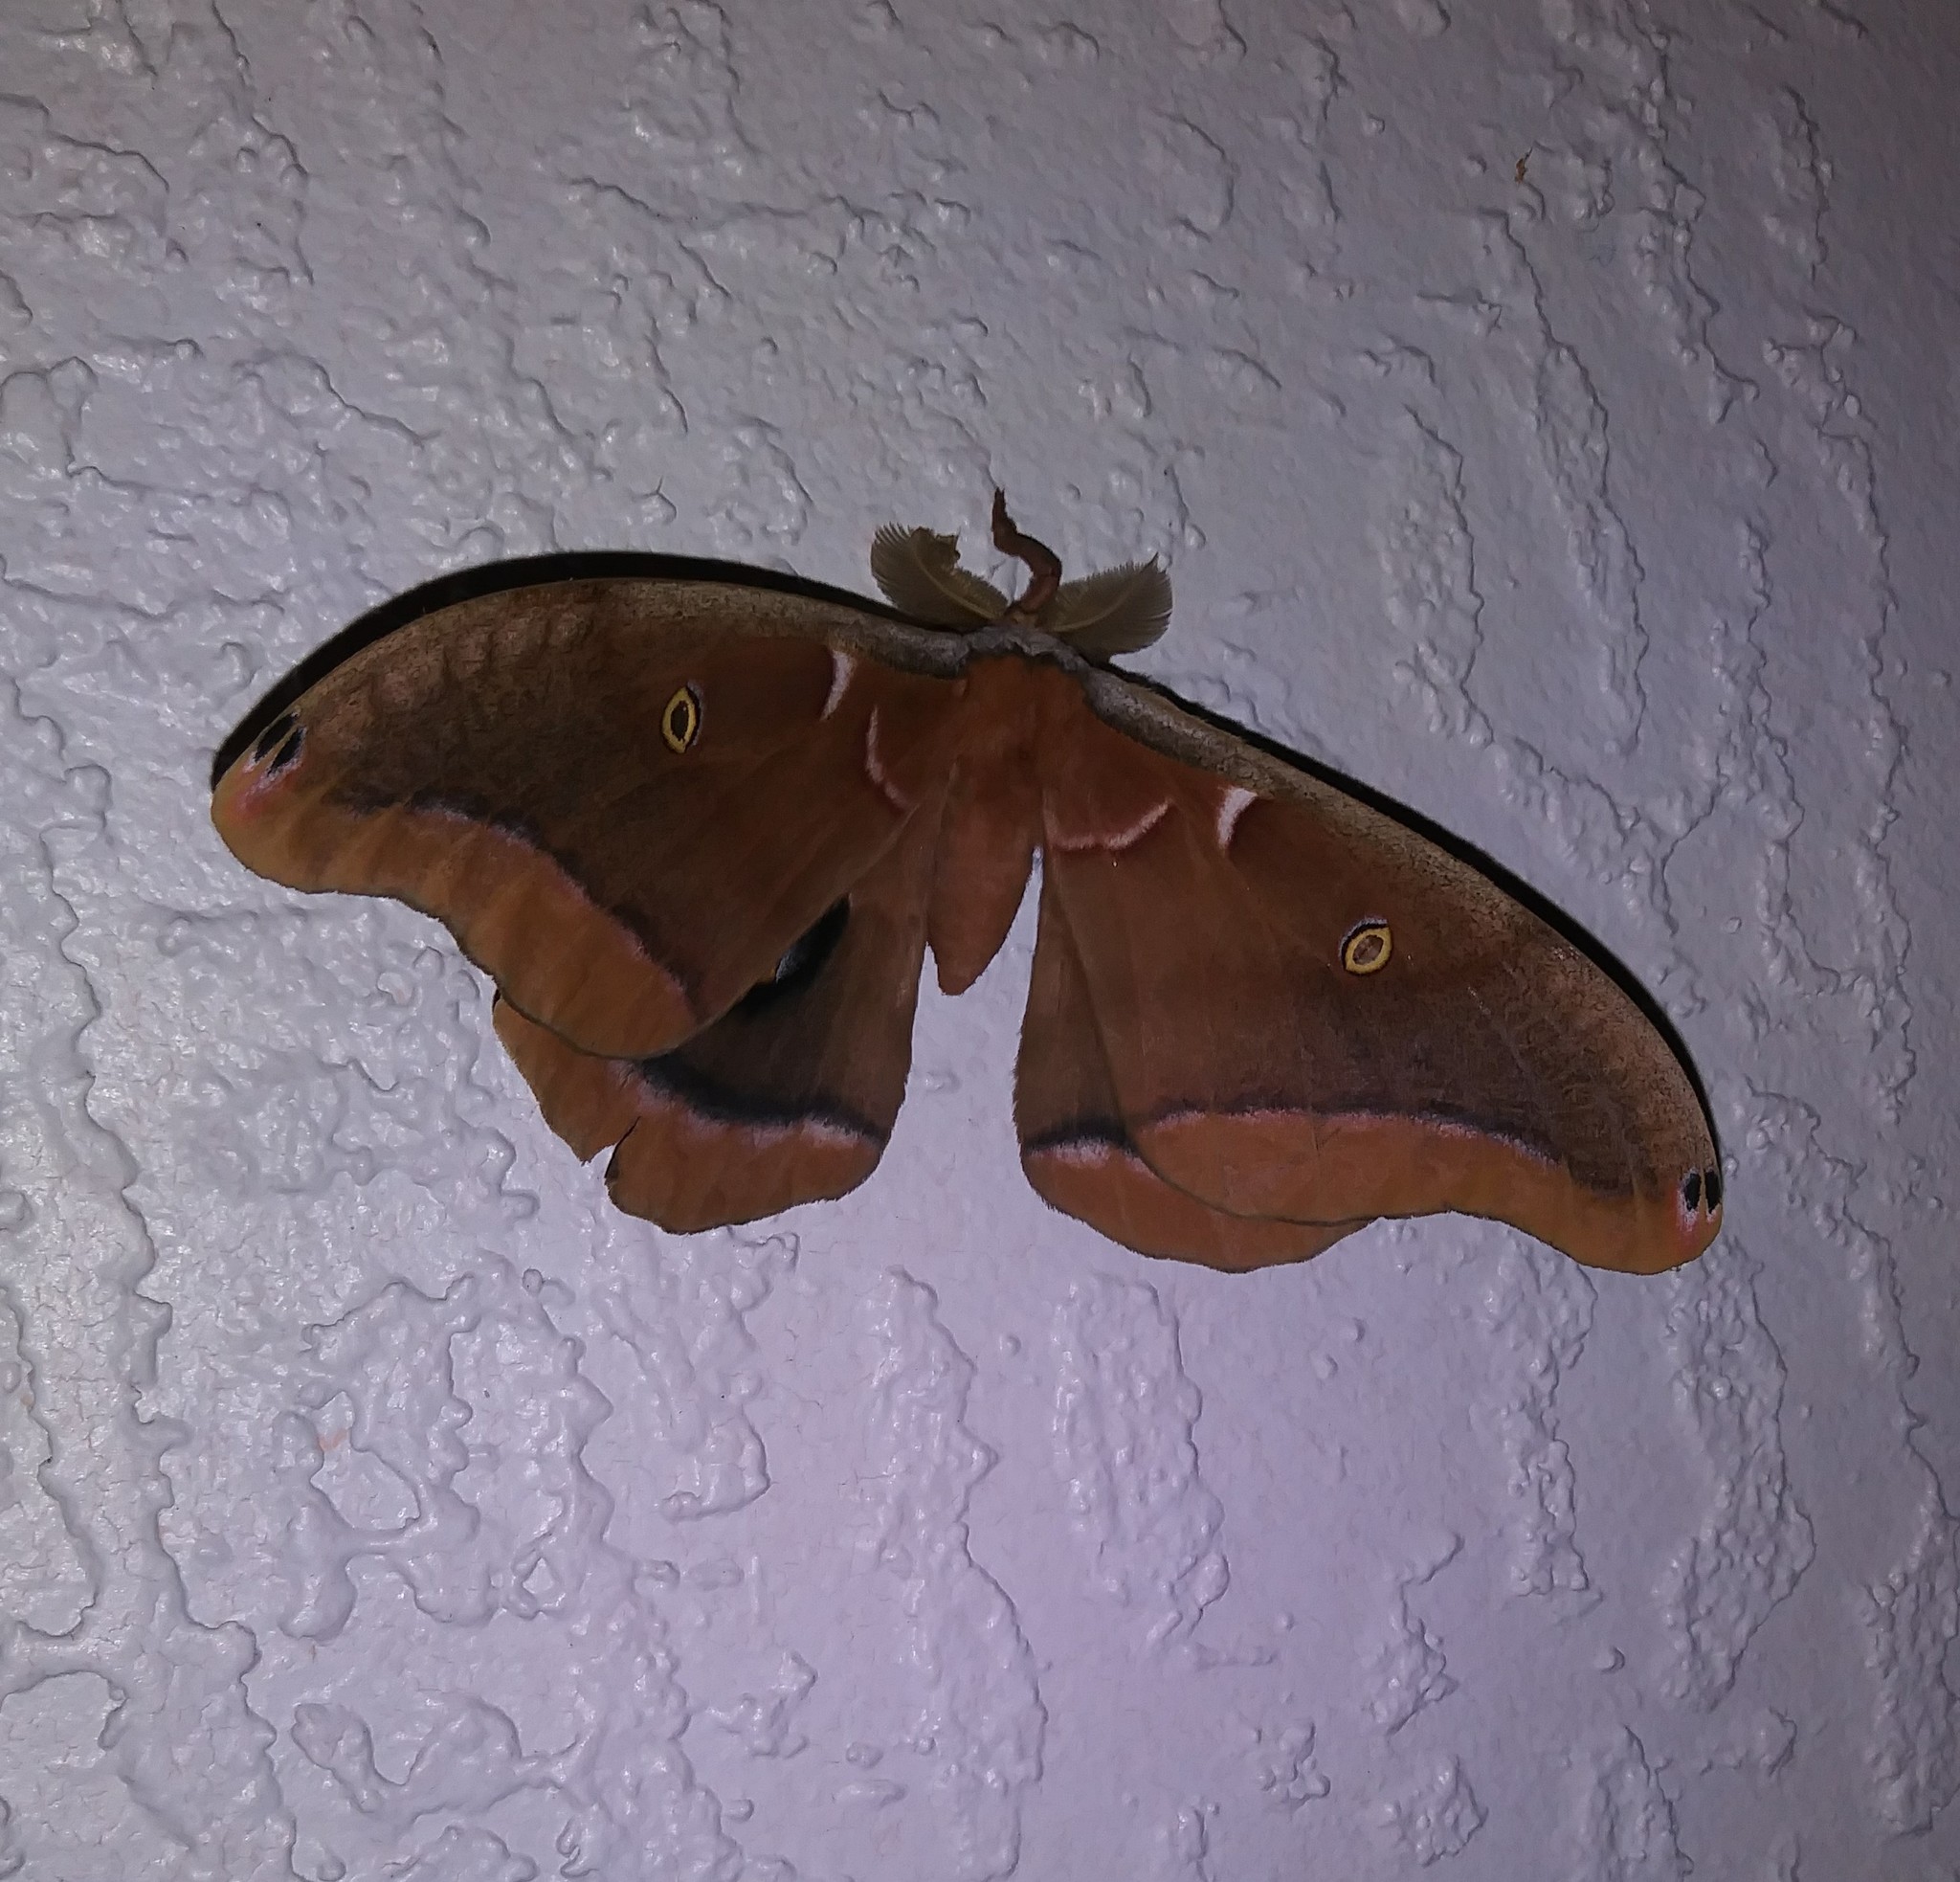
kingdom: Animalia
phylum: Arthropoda
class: Insecta
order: Lepidoptera
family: Saturniidae
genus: Antheraea
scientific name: Antheraea polyphemus
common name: Polyphemus moth
